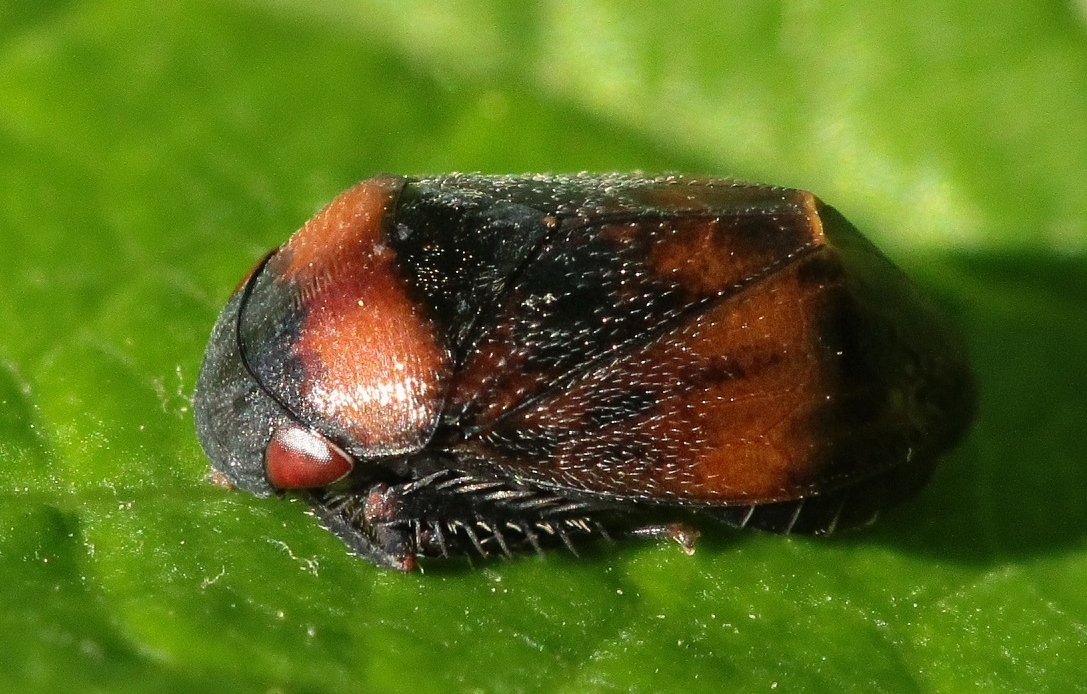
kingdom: Animalia
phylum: Arthropoda
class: Insecta
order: Hemiptera
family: Cicadellidae
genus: Penthimia
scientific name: Penthimia nigra
